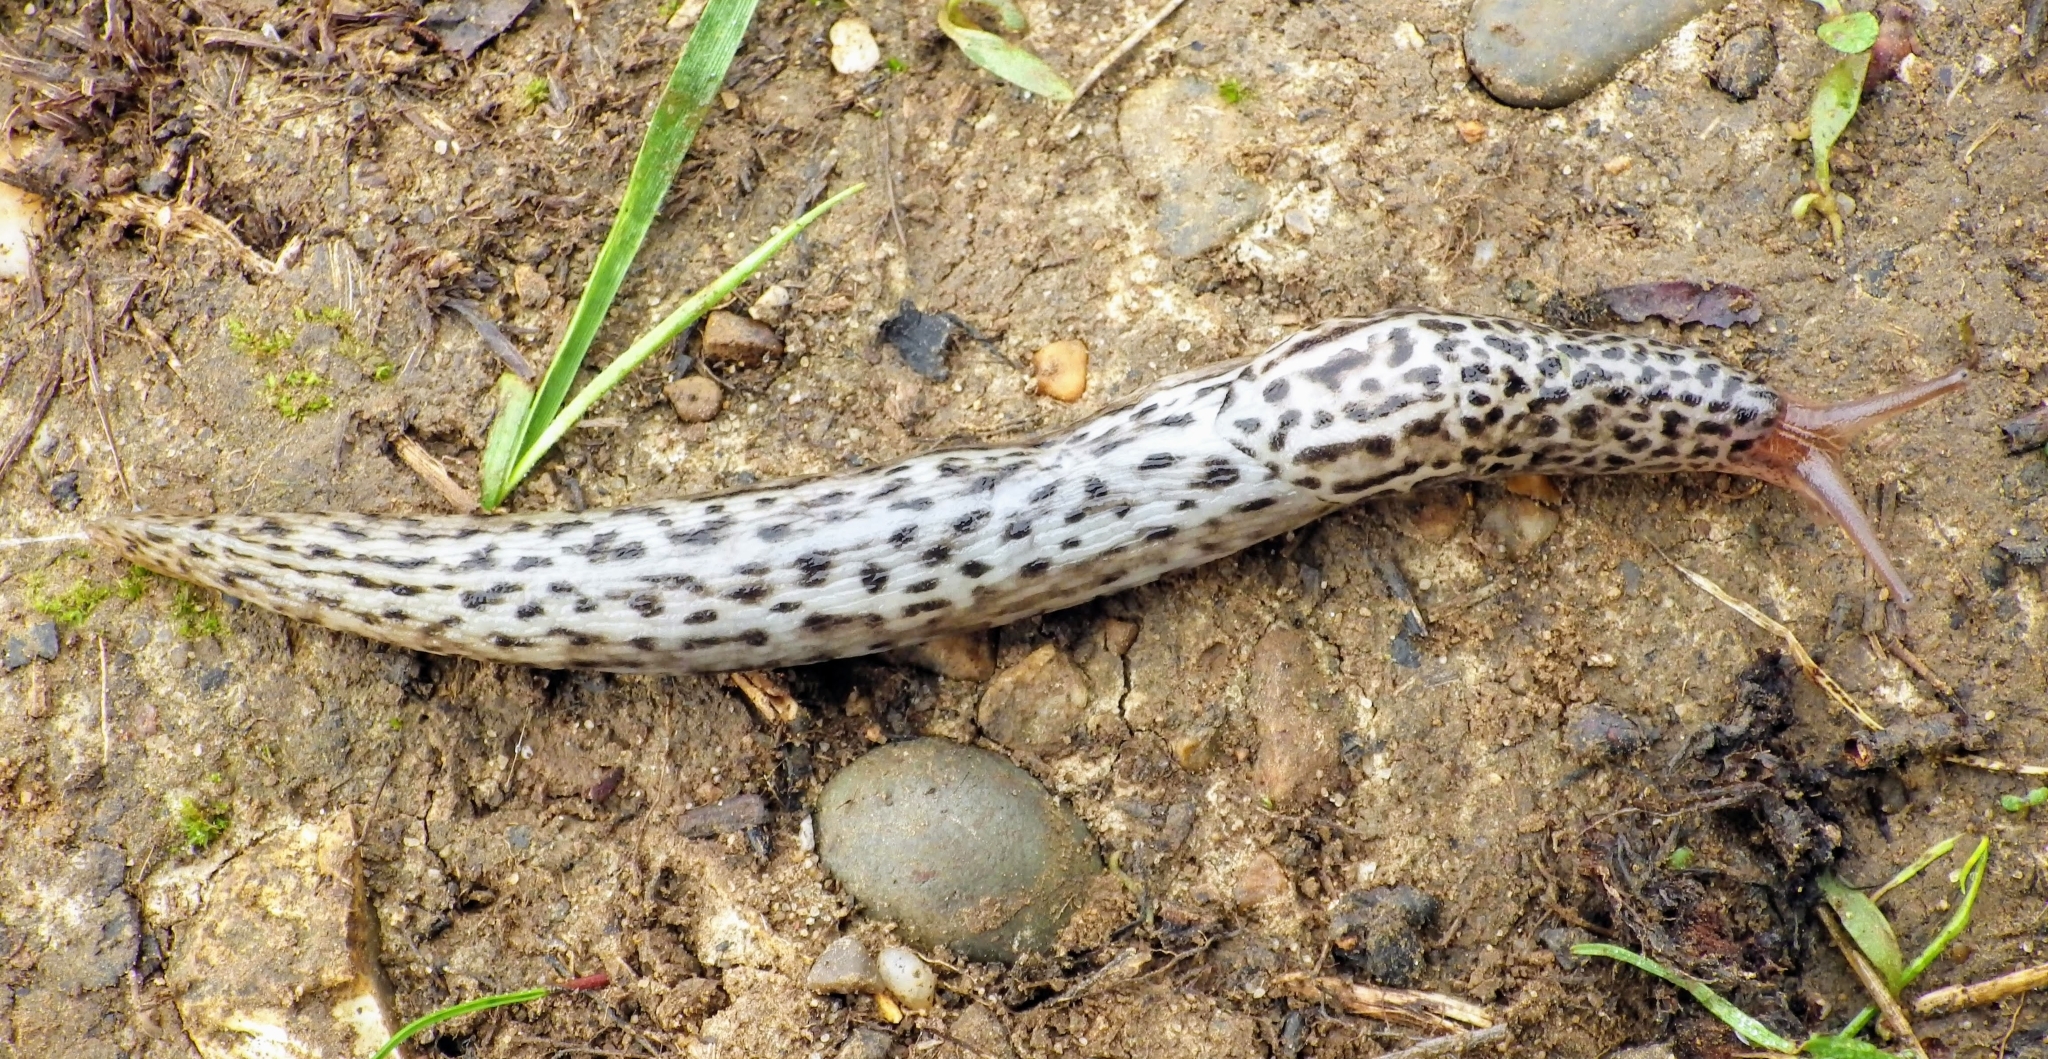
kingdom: Animalia
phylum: Mollusca
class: Gastropoda
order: Stylommatophora
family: Limacidae
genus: Limax
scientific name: Limax maximus
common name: Great grey slug
